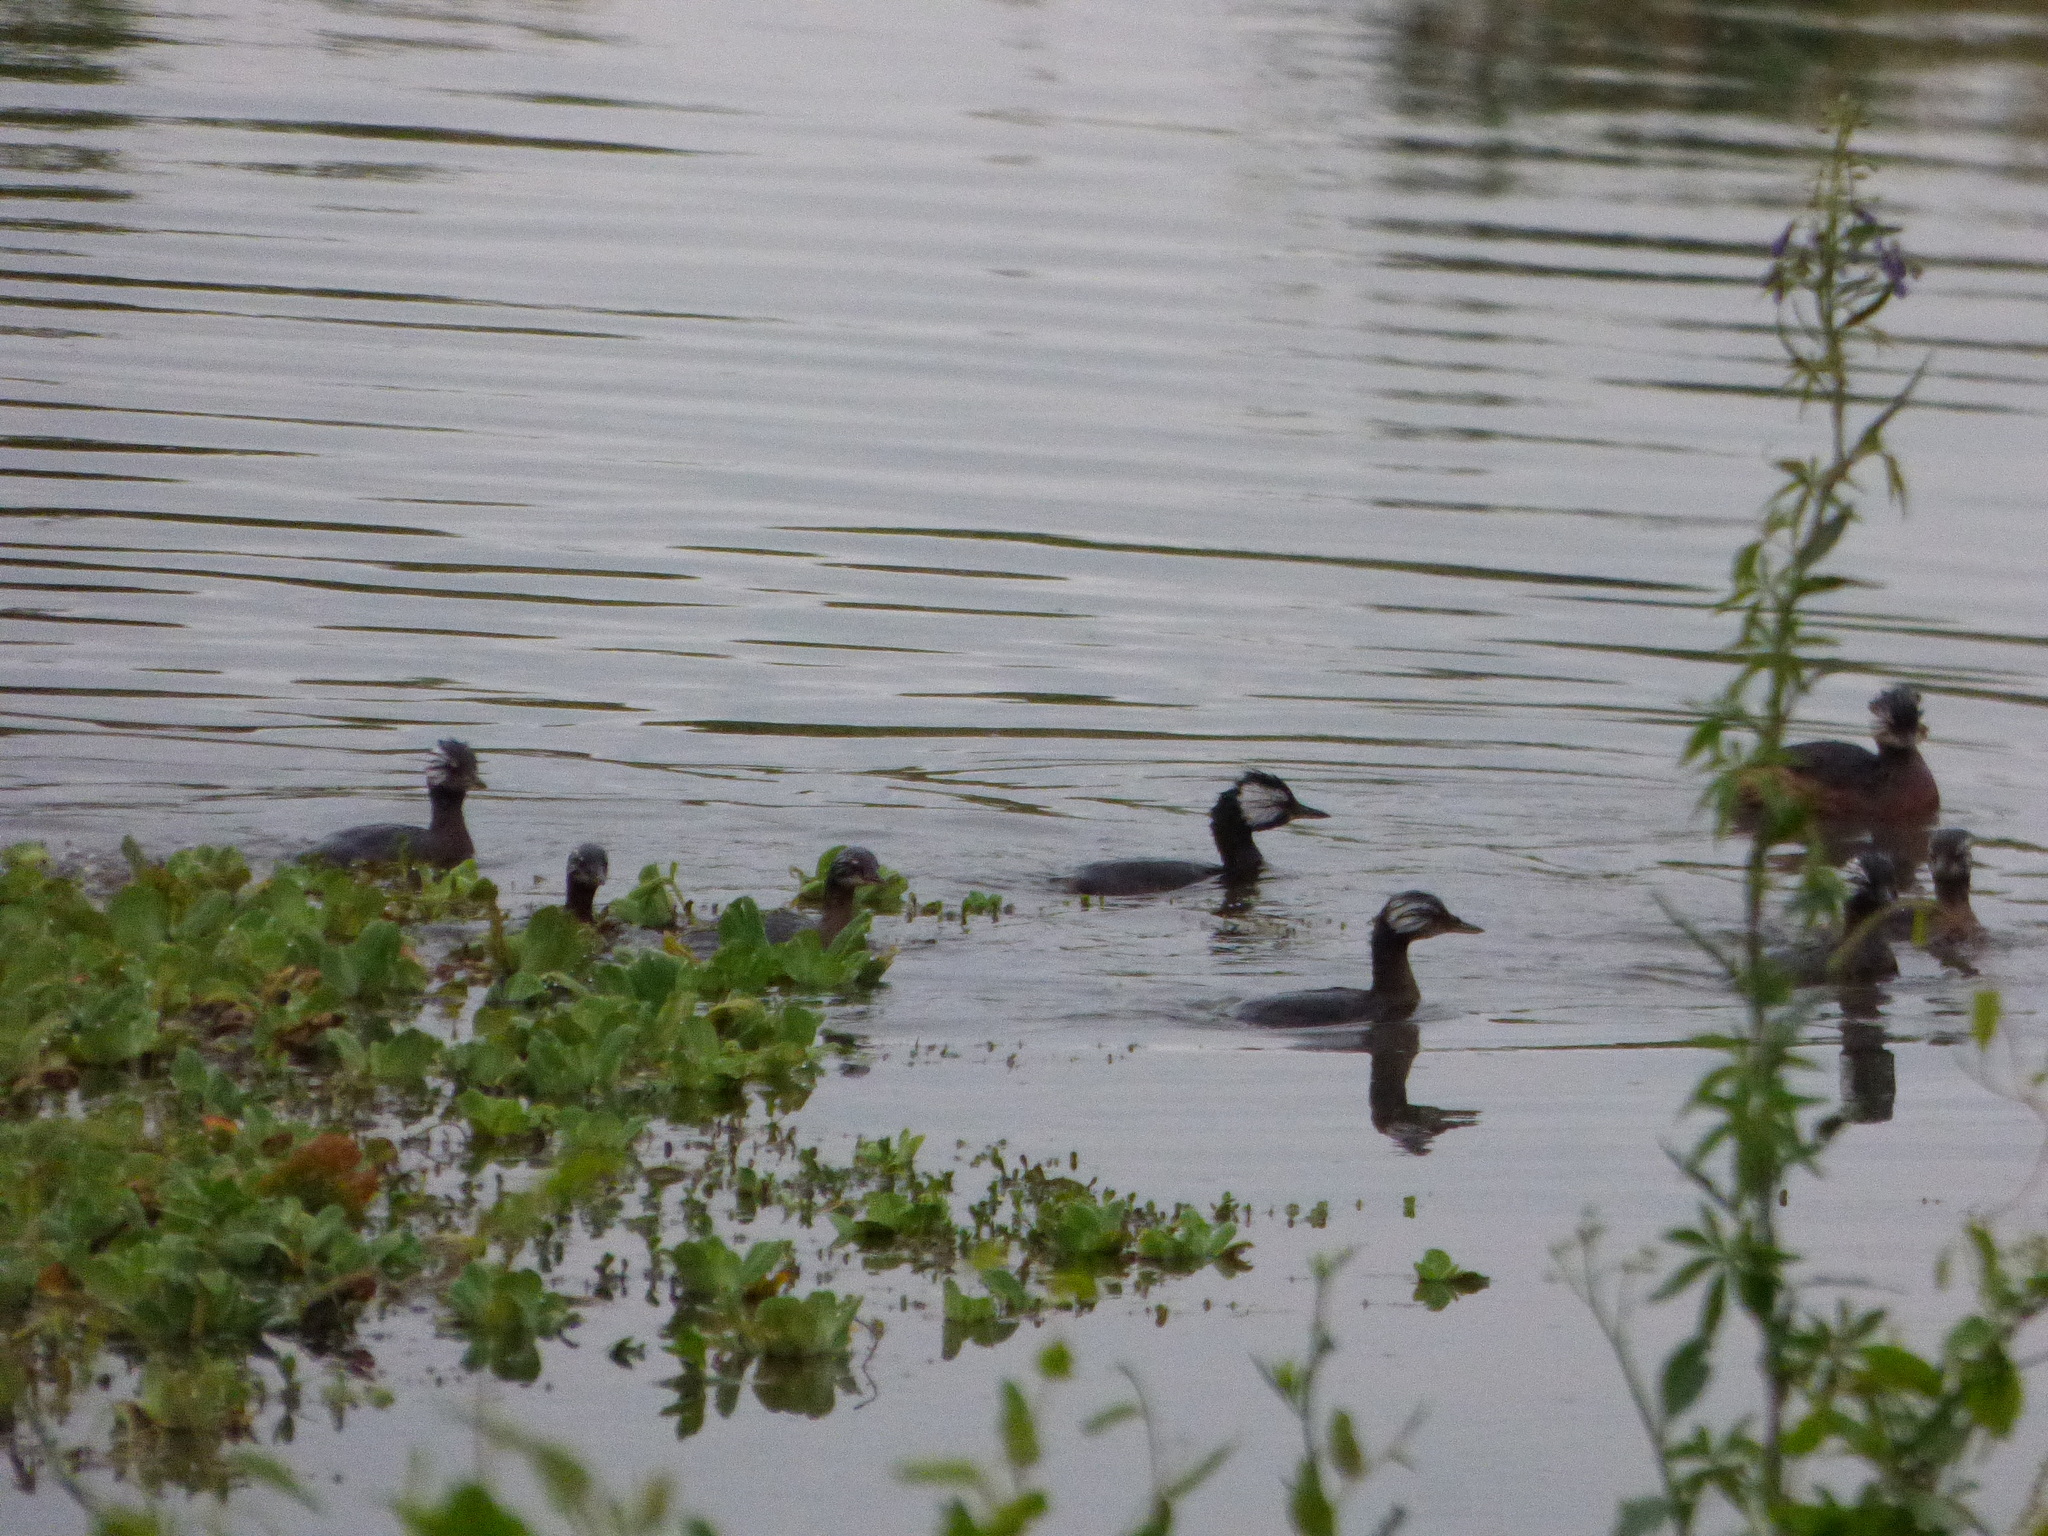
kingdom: Animalia
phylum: Chordata
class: Aves
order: Podicipediformes
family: Podicipedidae
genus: Rollandia
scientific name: Rollandia rolland
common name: White-tufted grebe
